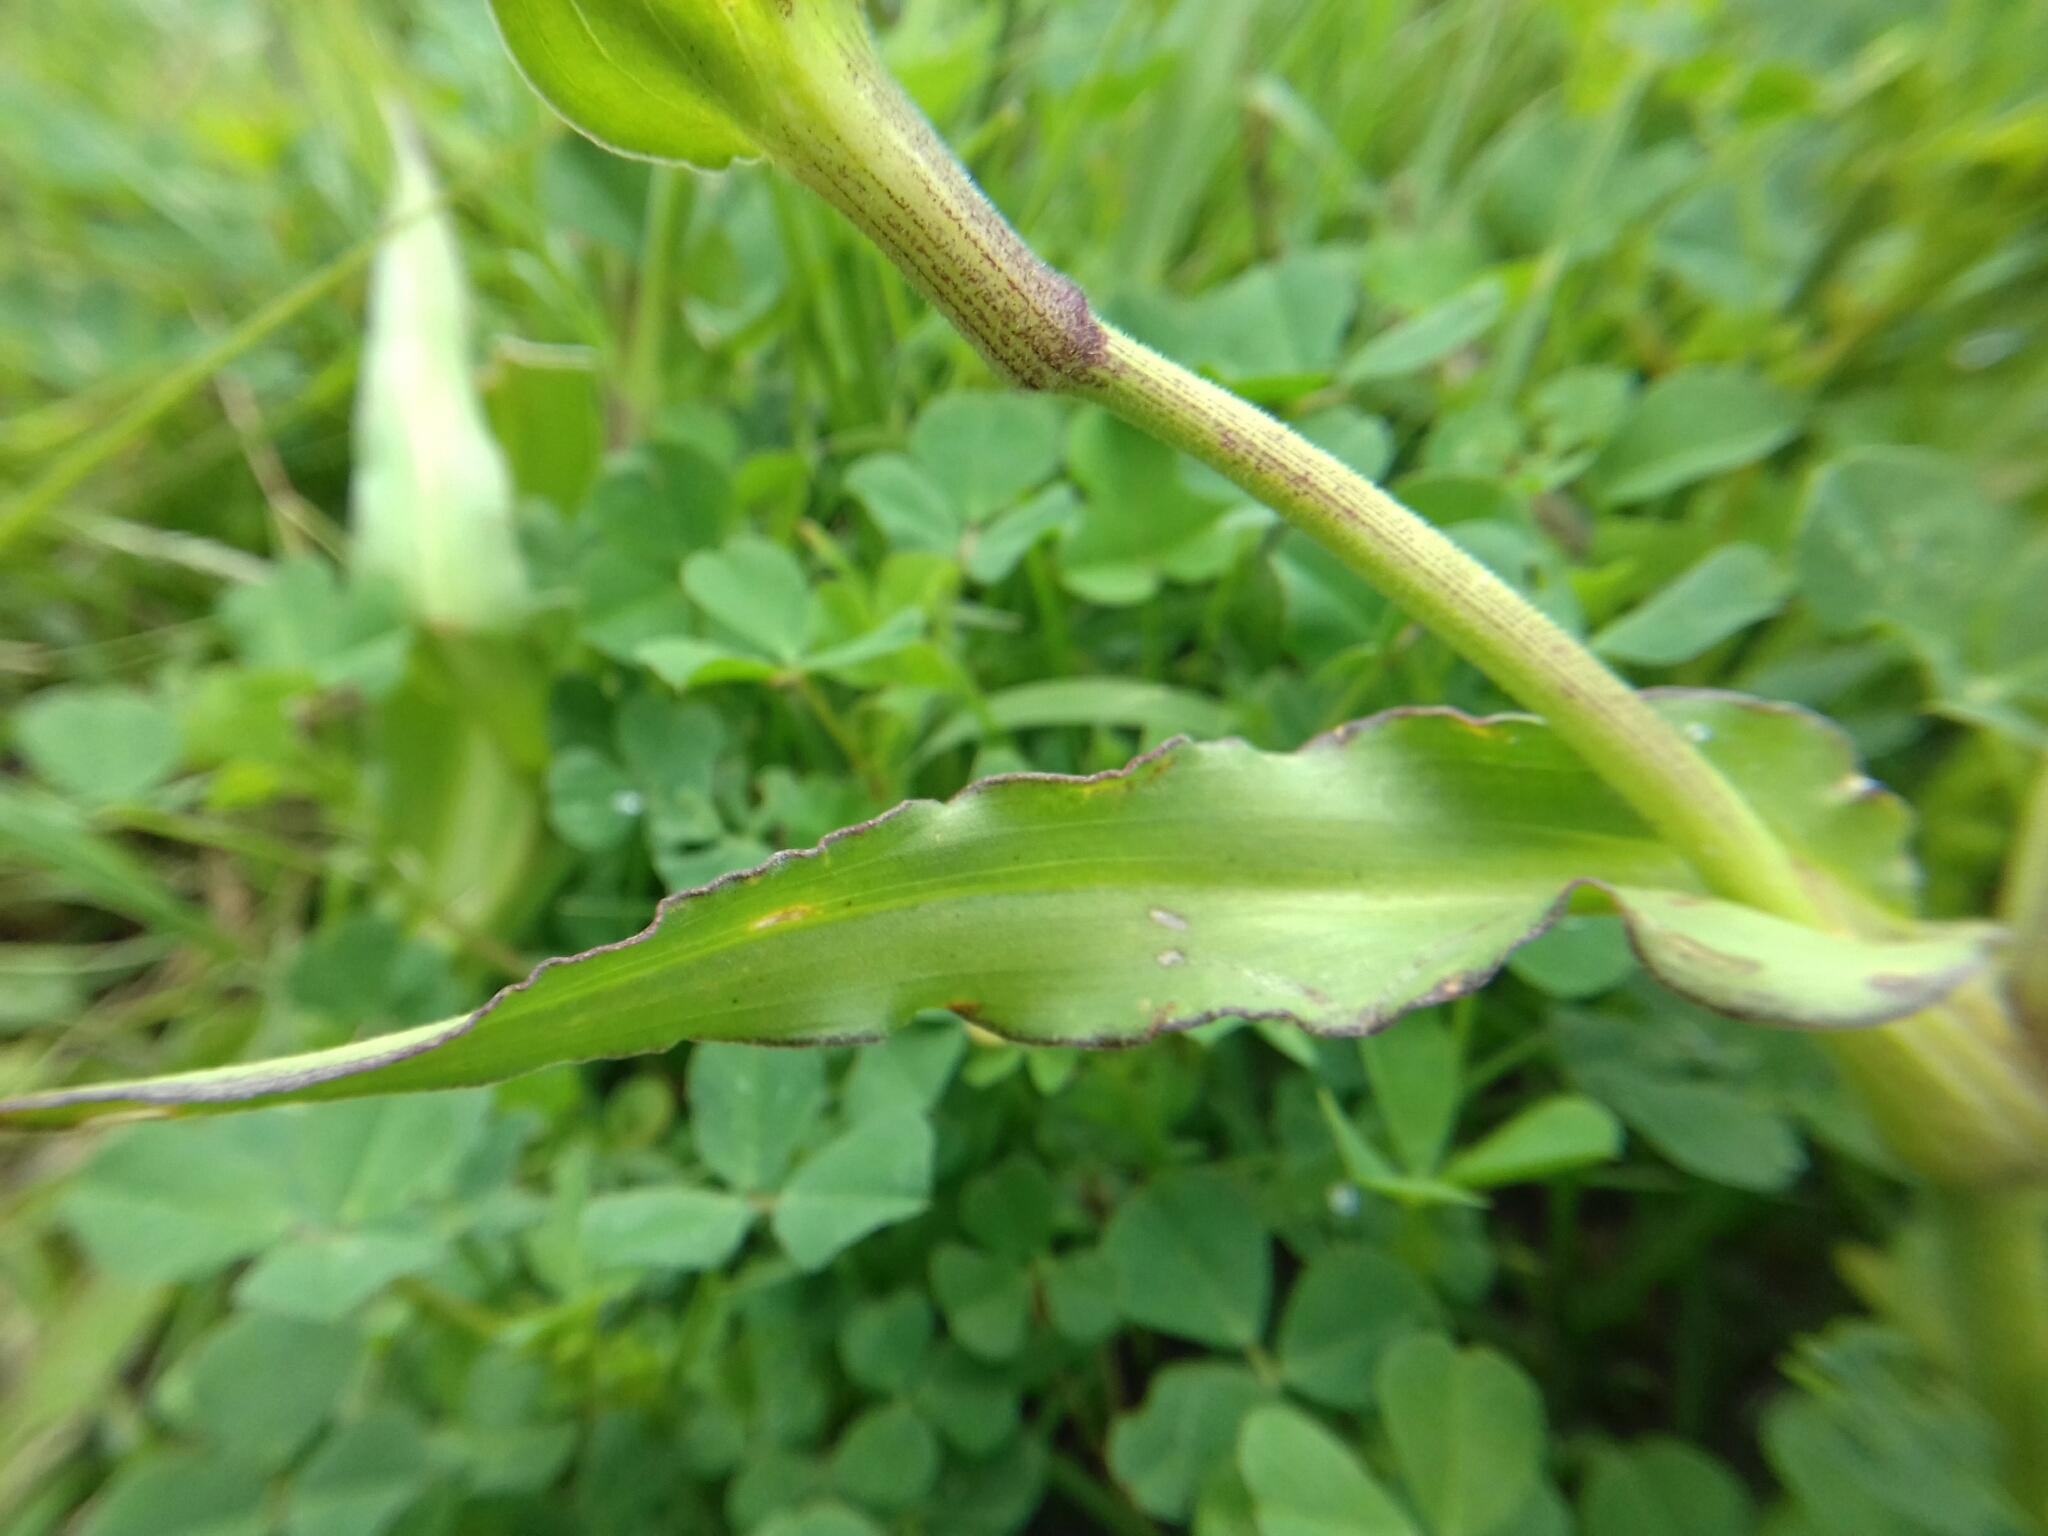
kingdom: Plantae
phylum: Tracheophyta
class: Liliopsida
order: Commelinales
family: Commelinaceae
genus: Commelina
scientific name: Commelina tuberosa
